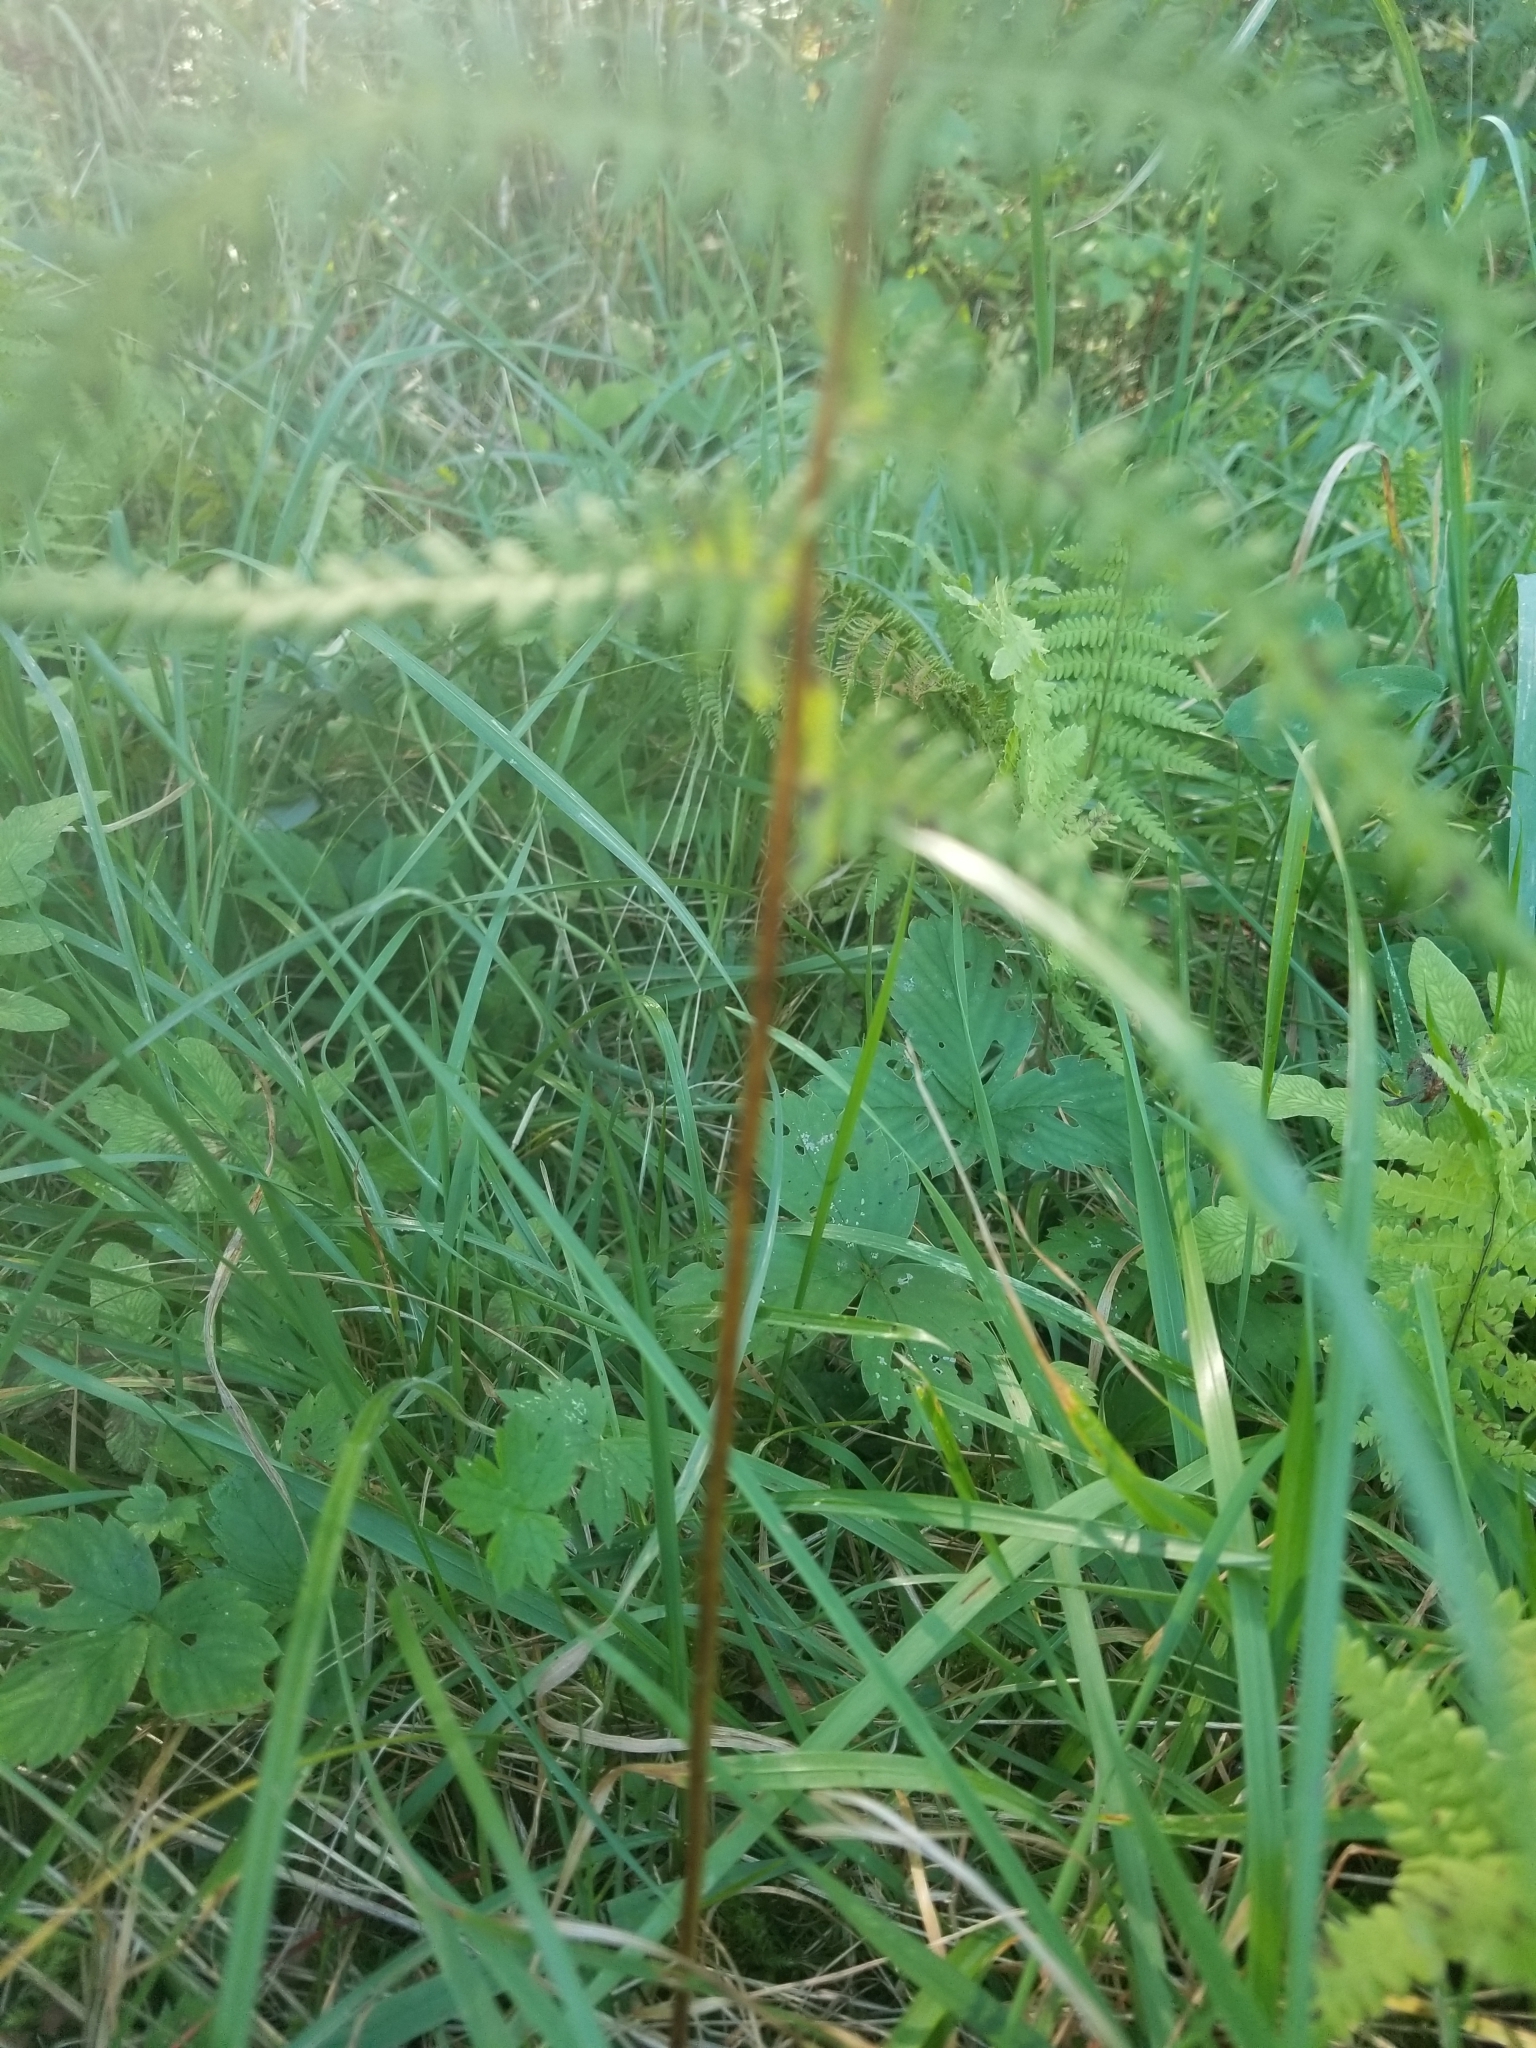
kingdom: Plantae
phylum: Tracheophyta
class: Polypodiopsida
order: Polypodiales
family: Thelypteridaceae
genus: Thelypteris
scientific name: Thelypteris palustris
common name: Marsh fern
